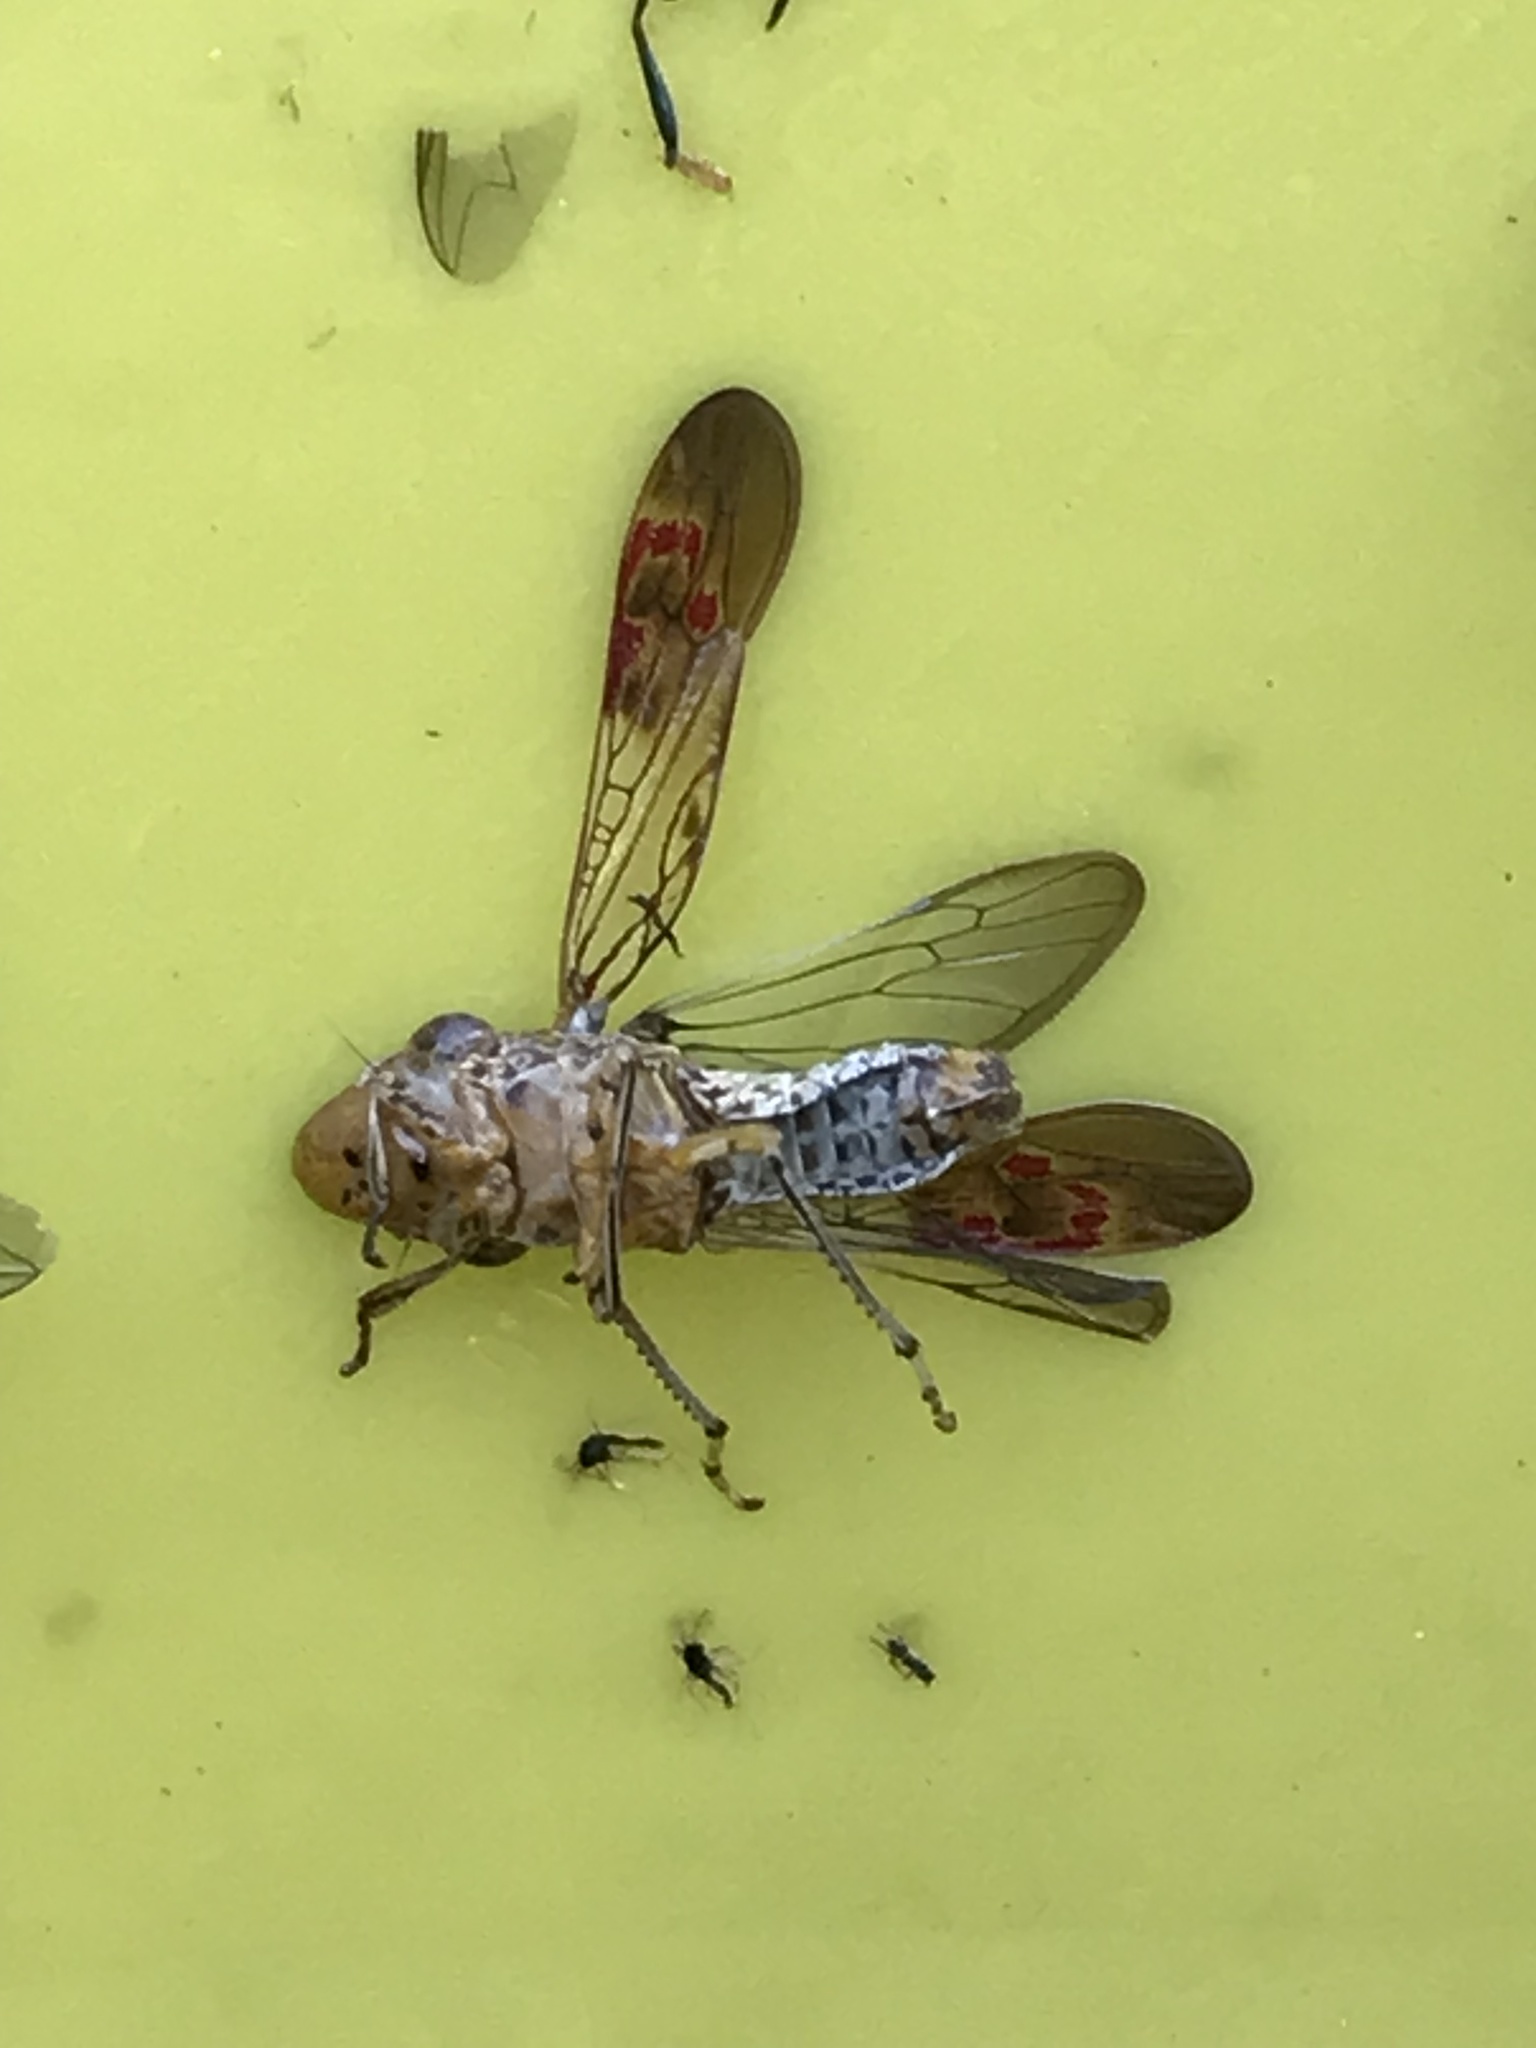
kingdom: Animalia
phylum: Arthropoda
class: Insecta
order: Hemiptera
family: Cicadellidae
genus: Homalodisca
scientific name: Homalodisca vitripennis
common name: Glassy-winged sharpshooter
